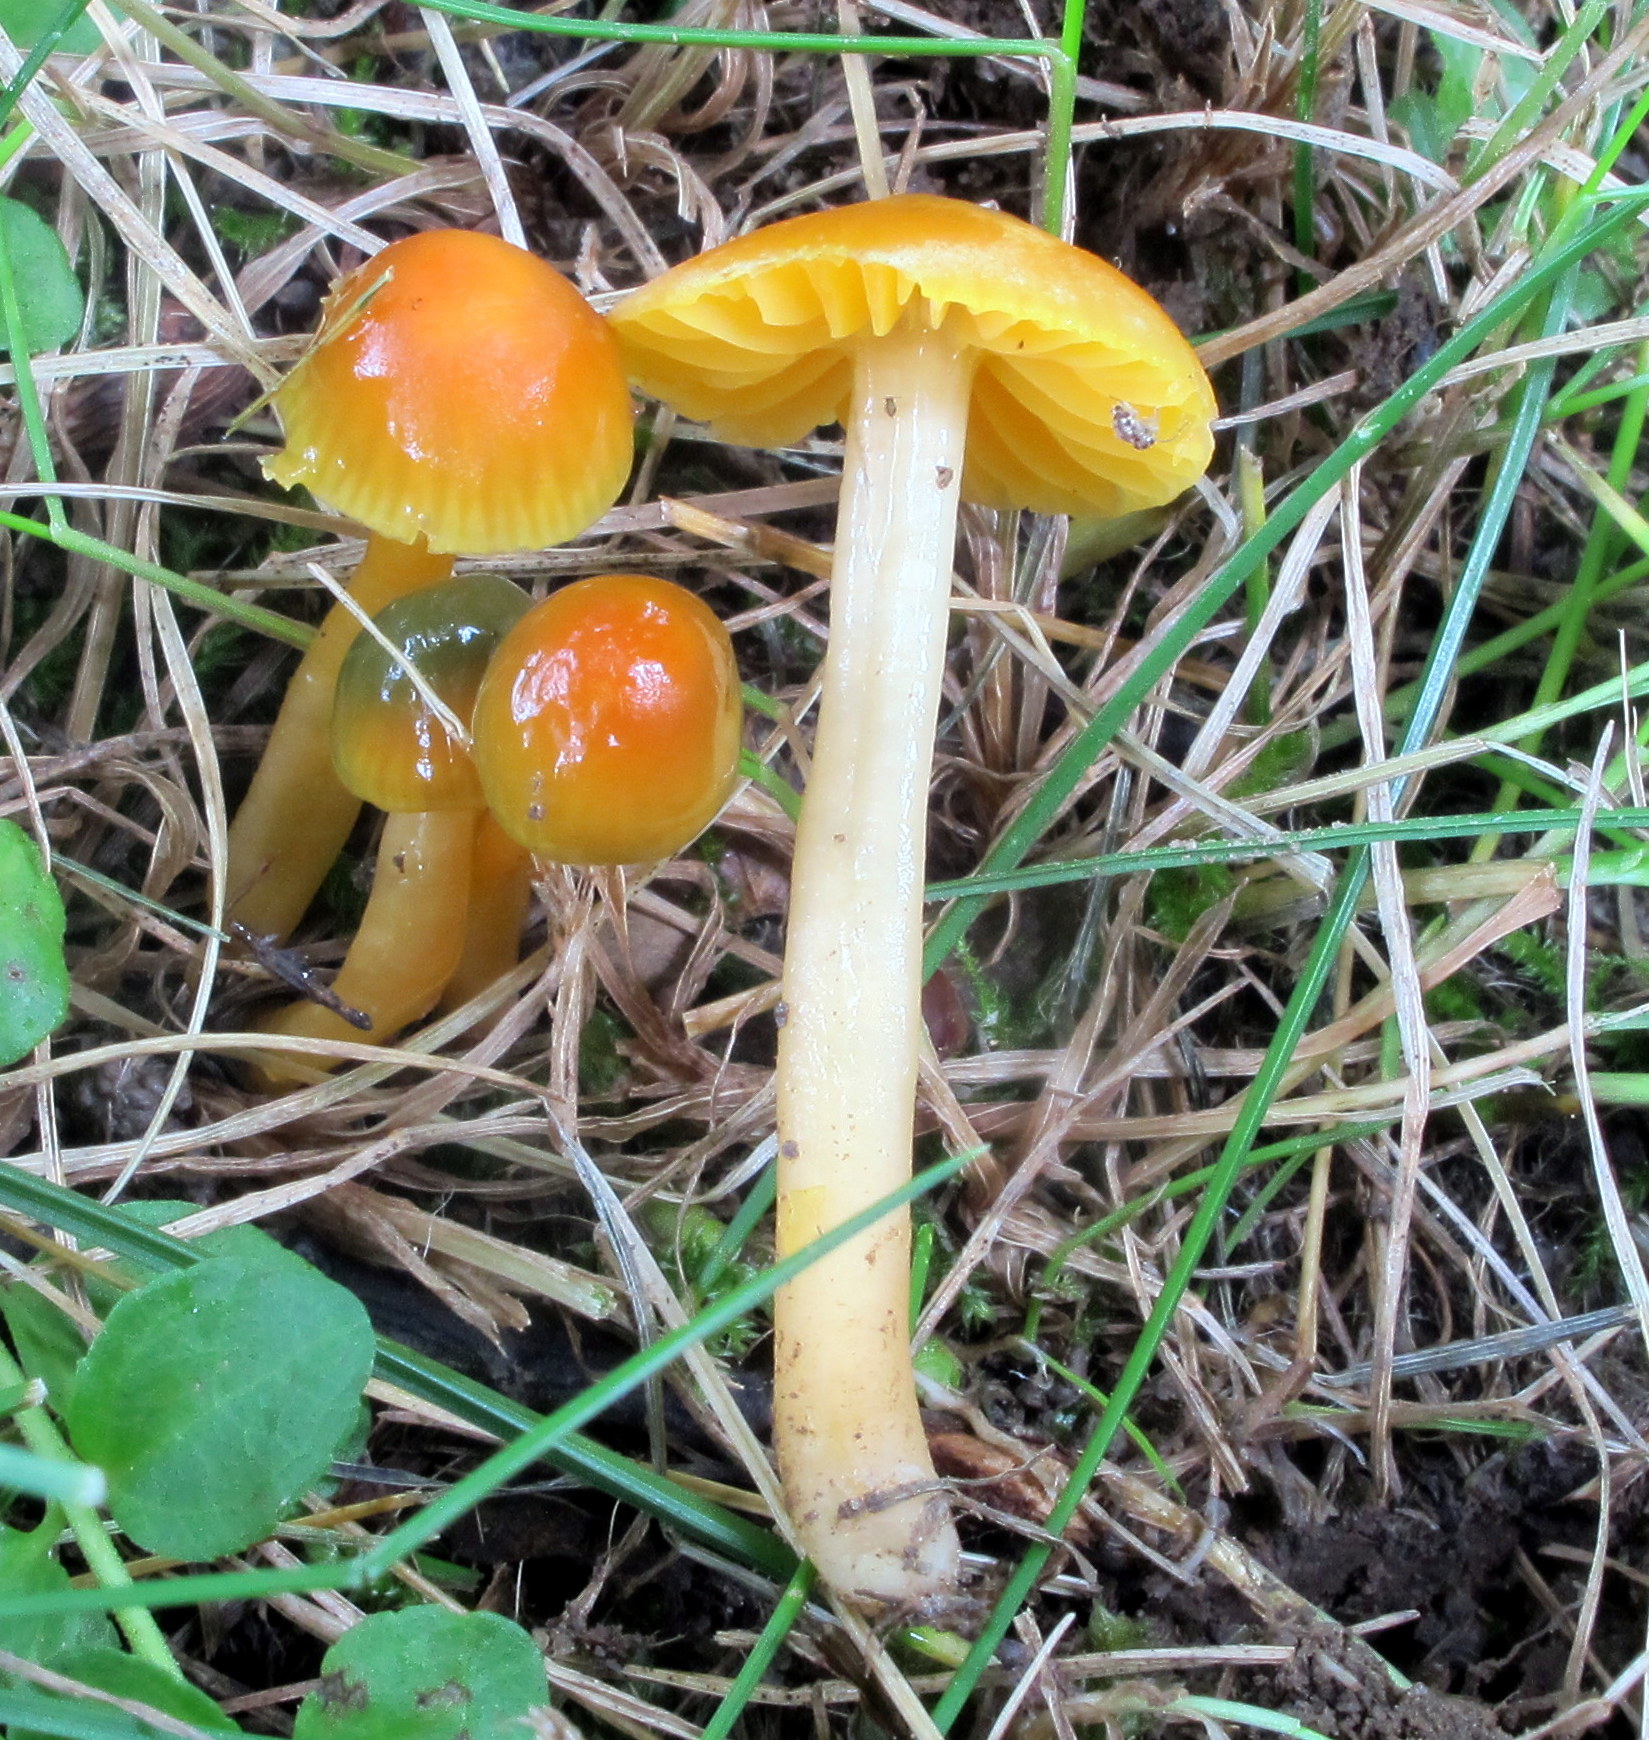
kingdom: Fungi
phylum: Basidiomycota
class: Agaricomycetes
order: Agaricales
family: Hygrophoraceae
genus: Gliophorus
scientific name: Gliophorus psittacinus
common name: Parrot wax-cap
